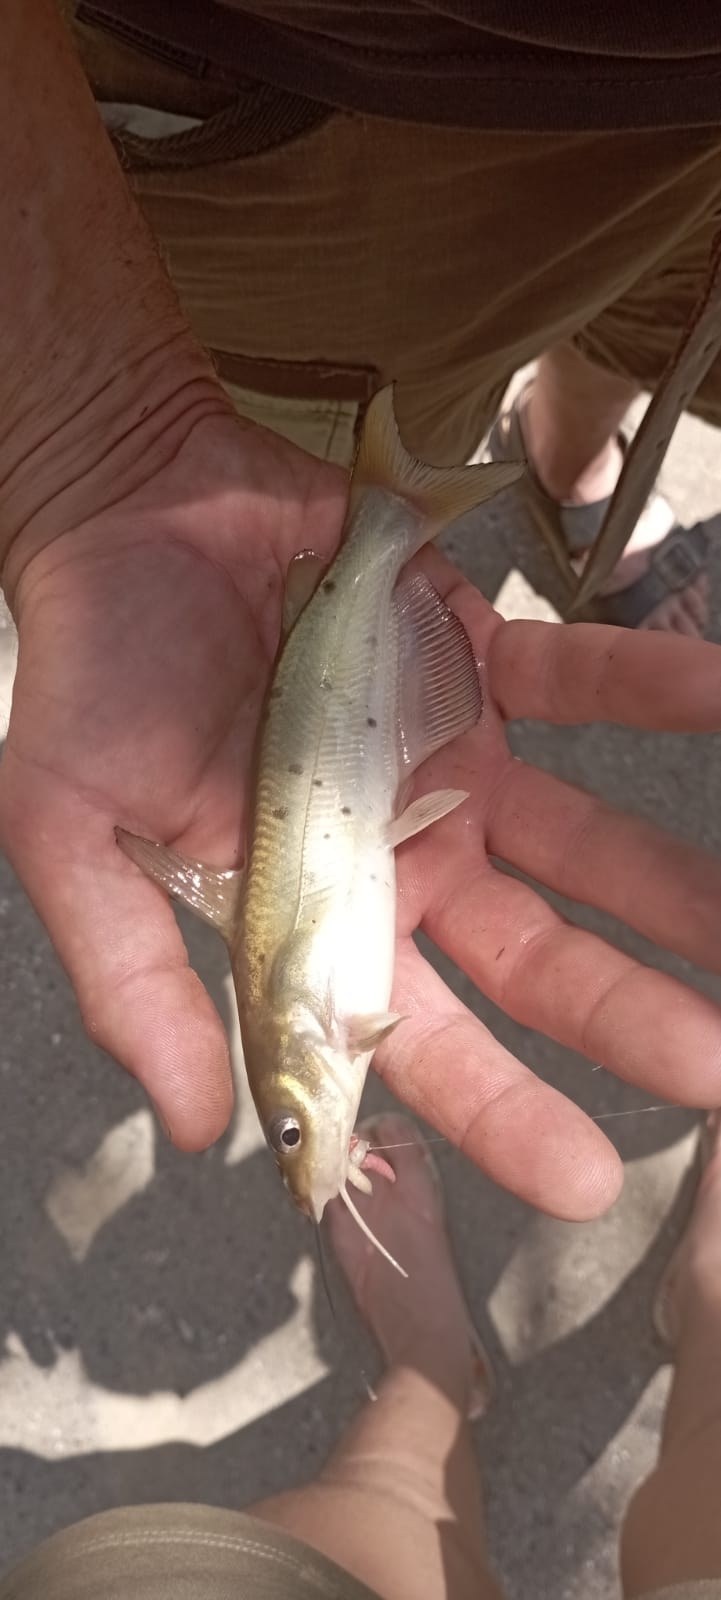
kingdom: Animalia
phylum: Chordata
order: Siluriformes
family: Ictaluridae
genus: Ictalurus
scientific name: Ictalurus punctatus
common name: Channel catfish
